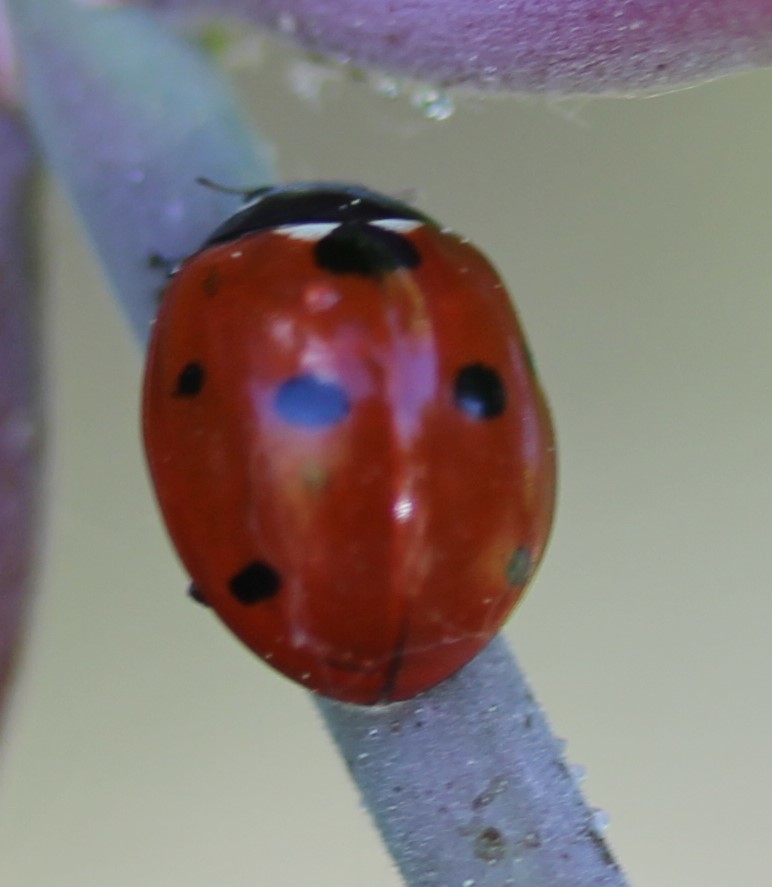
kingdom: Animalia
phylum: Arthropoda
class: Insecta
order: Coleoptera
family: Coccinellidae
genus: Coccinella
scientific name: Coccinella septempunctata
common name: Sevenspotted lady beetle
